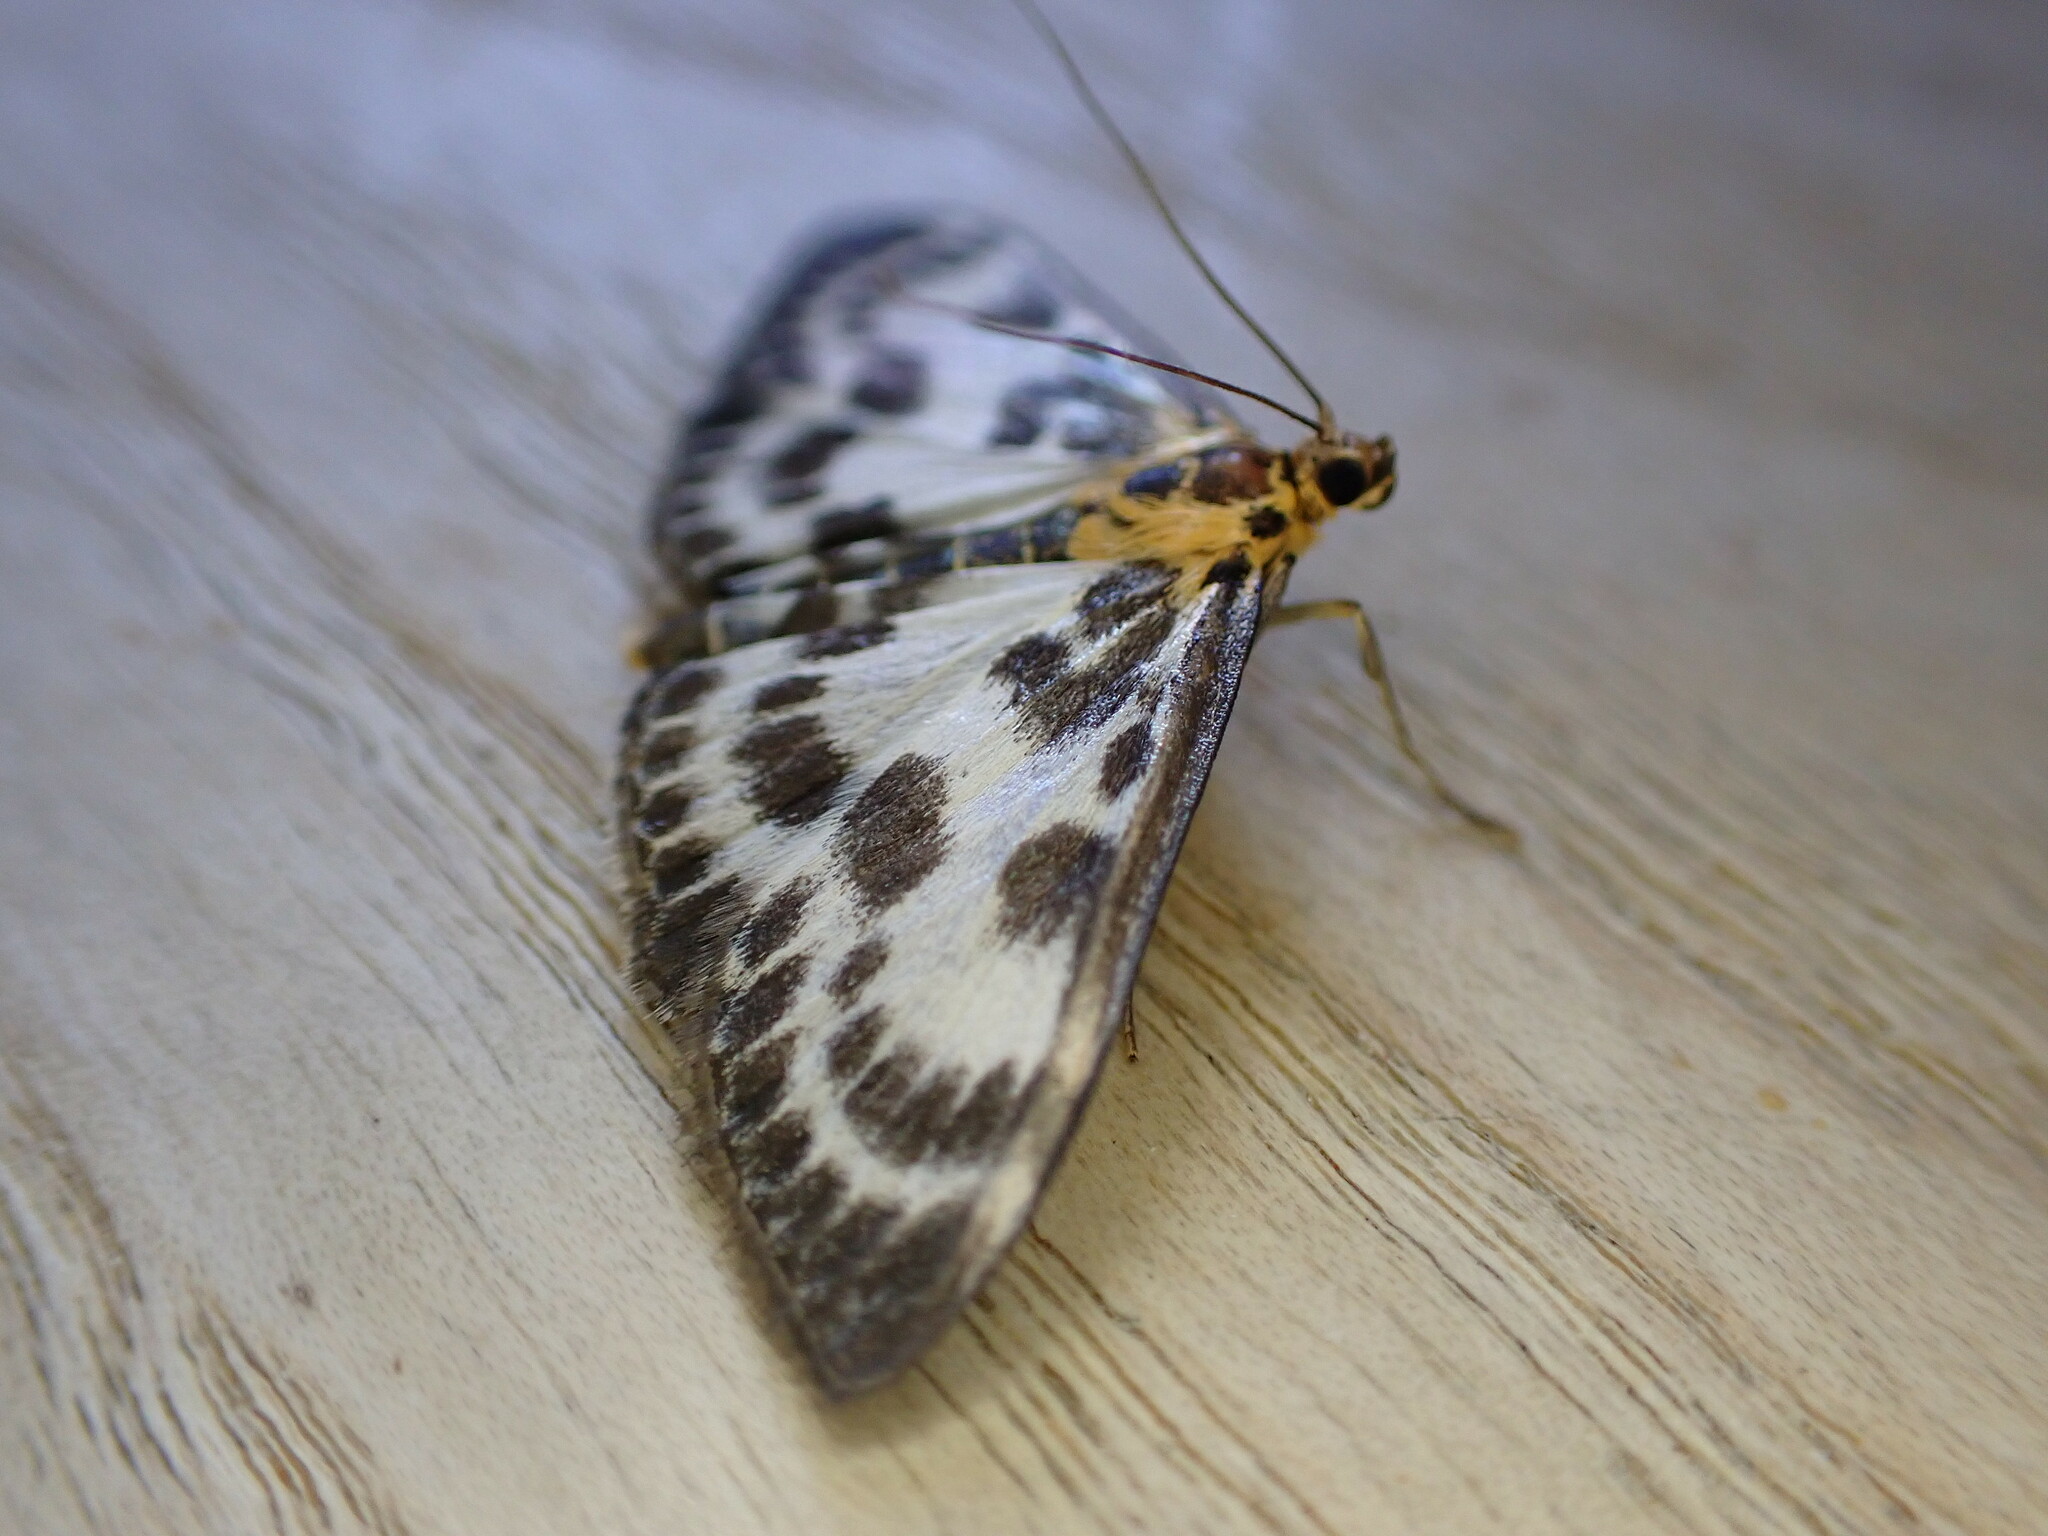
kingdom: Animalia
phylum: Arthropoda
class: Insecta
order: Lepidoptera
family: Crambidae
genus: Anania
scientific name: Anania hortulata
